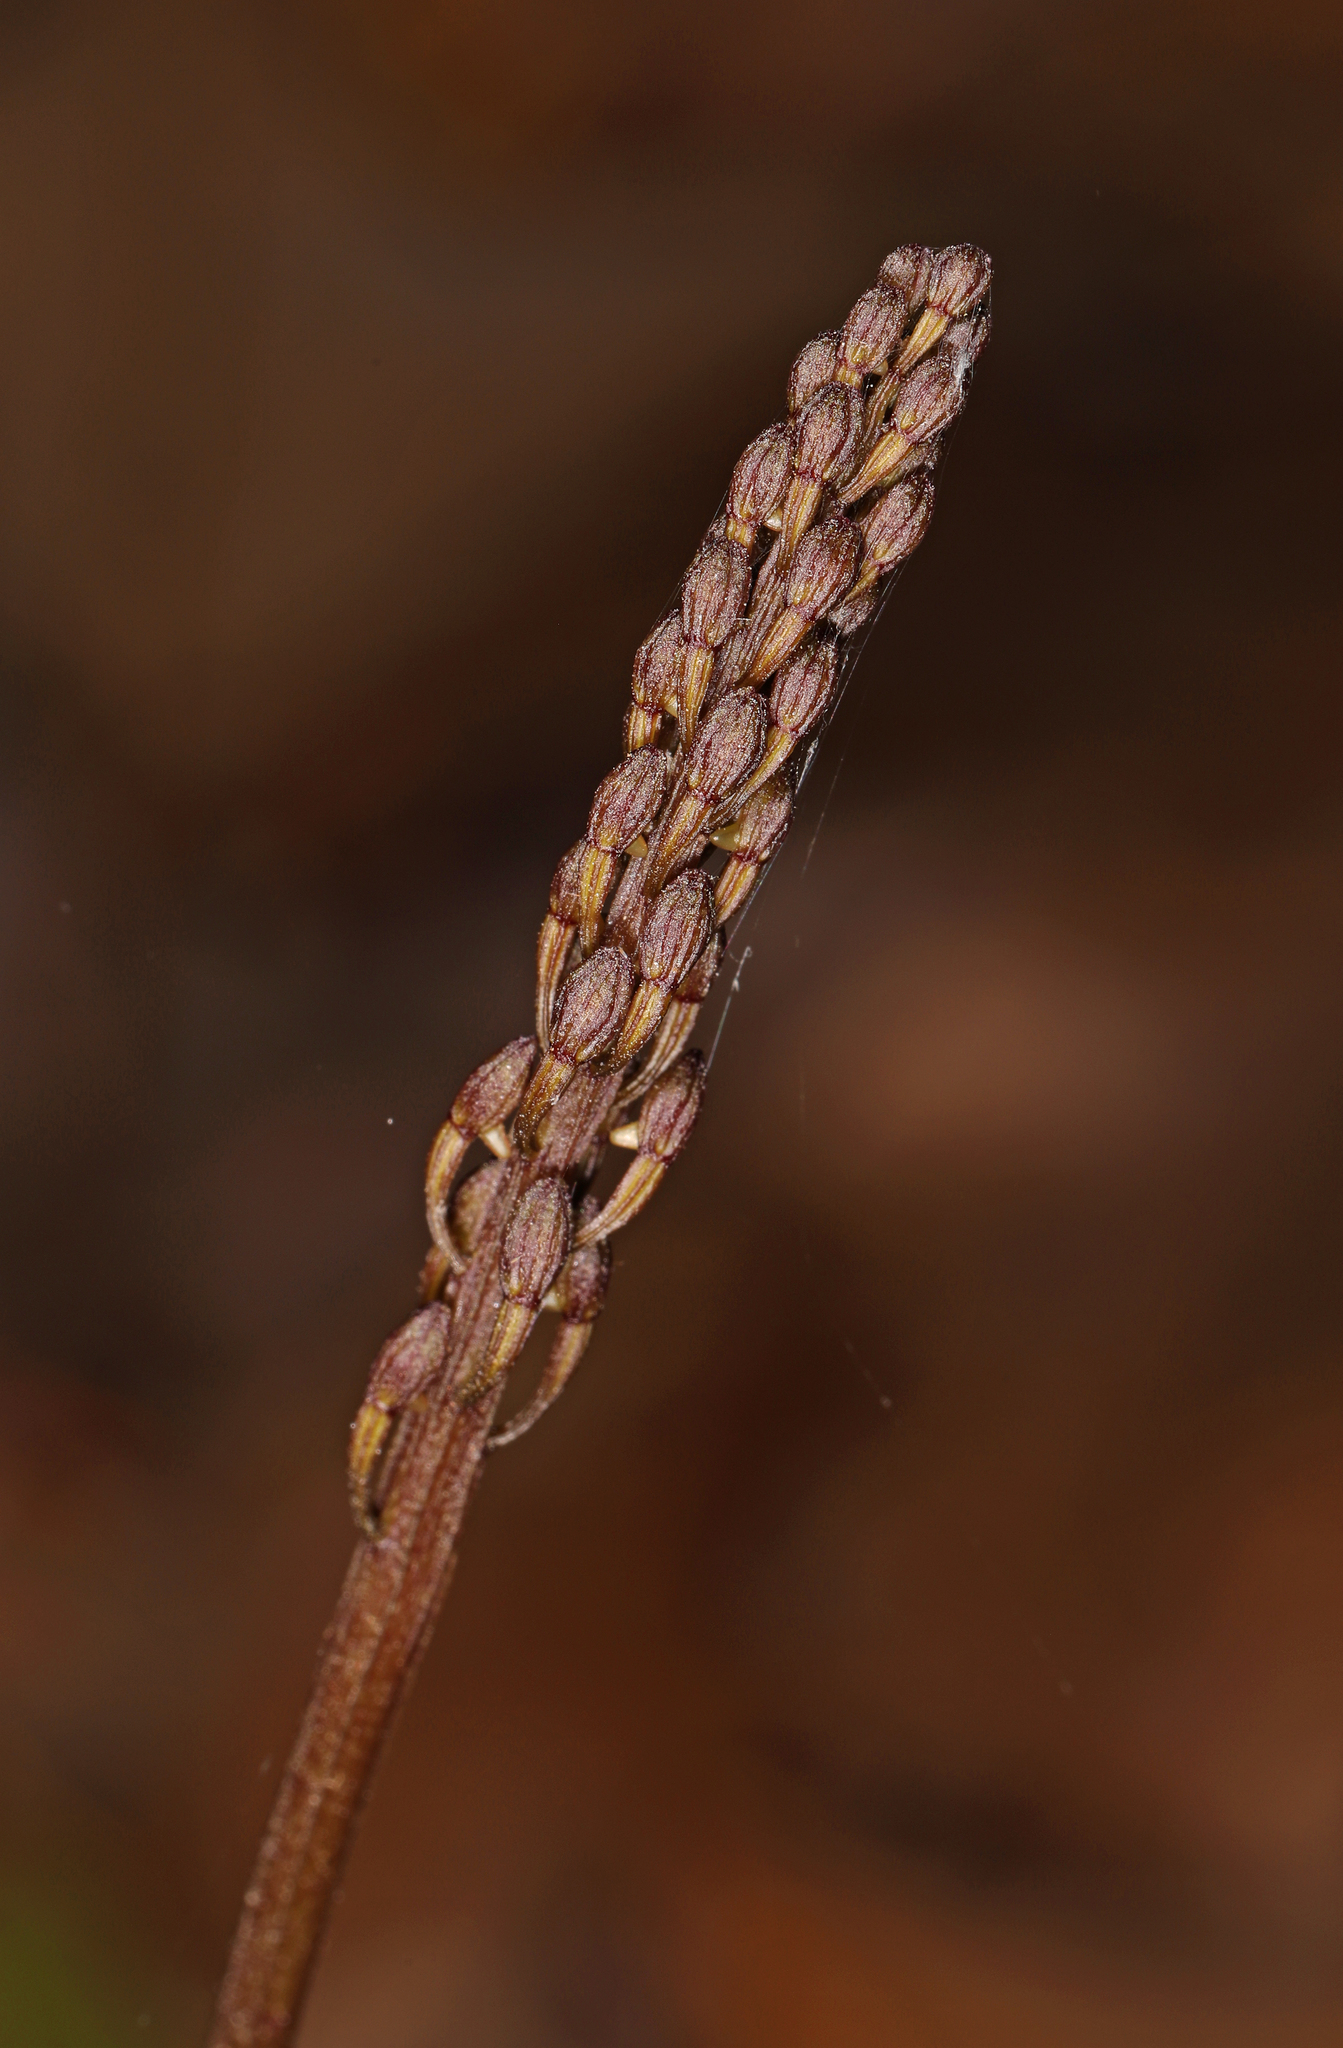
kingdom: Plantae
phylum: Tracheophyta
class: Liliopsida
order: Asparagales
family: Orchidaceae
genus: Tipularia
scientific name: Tipularia discolor
